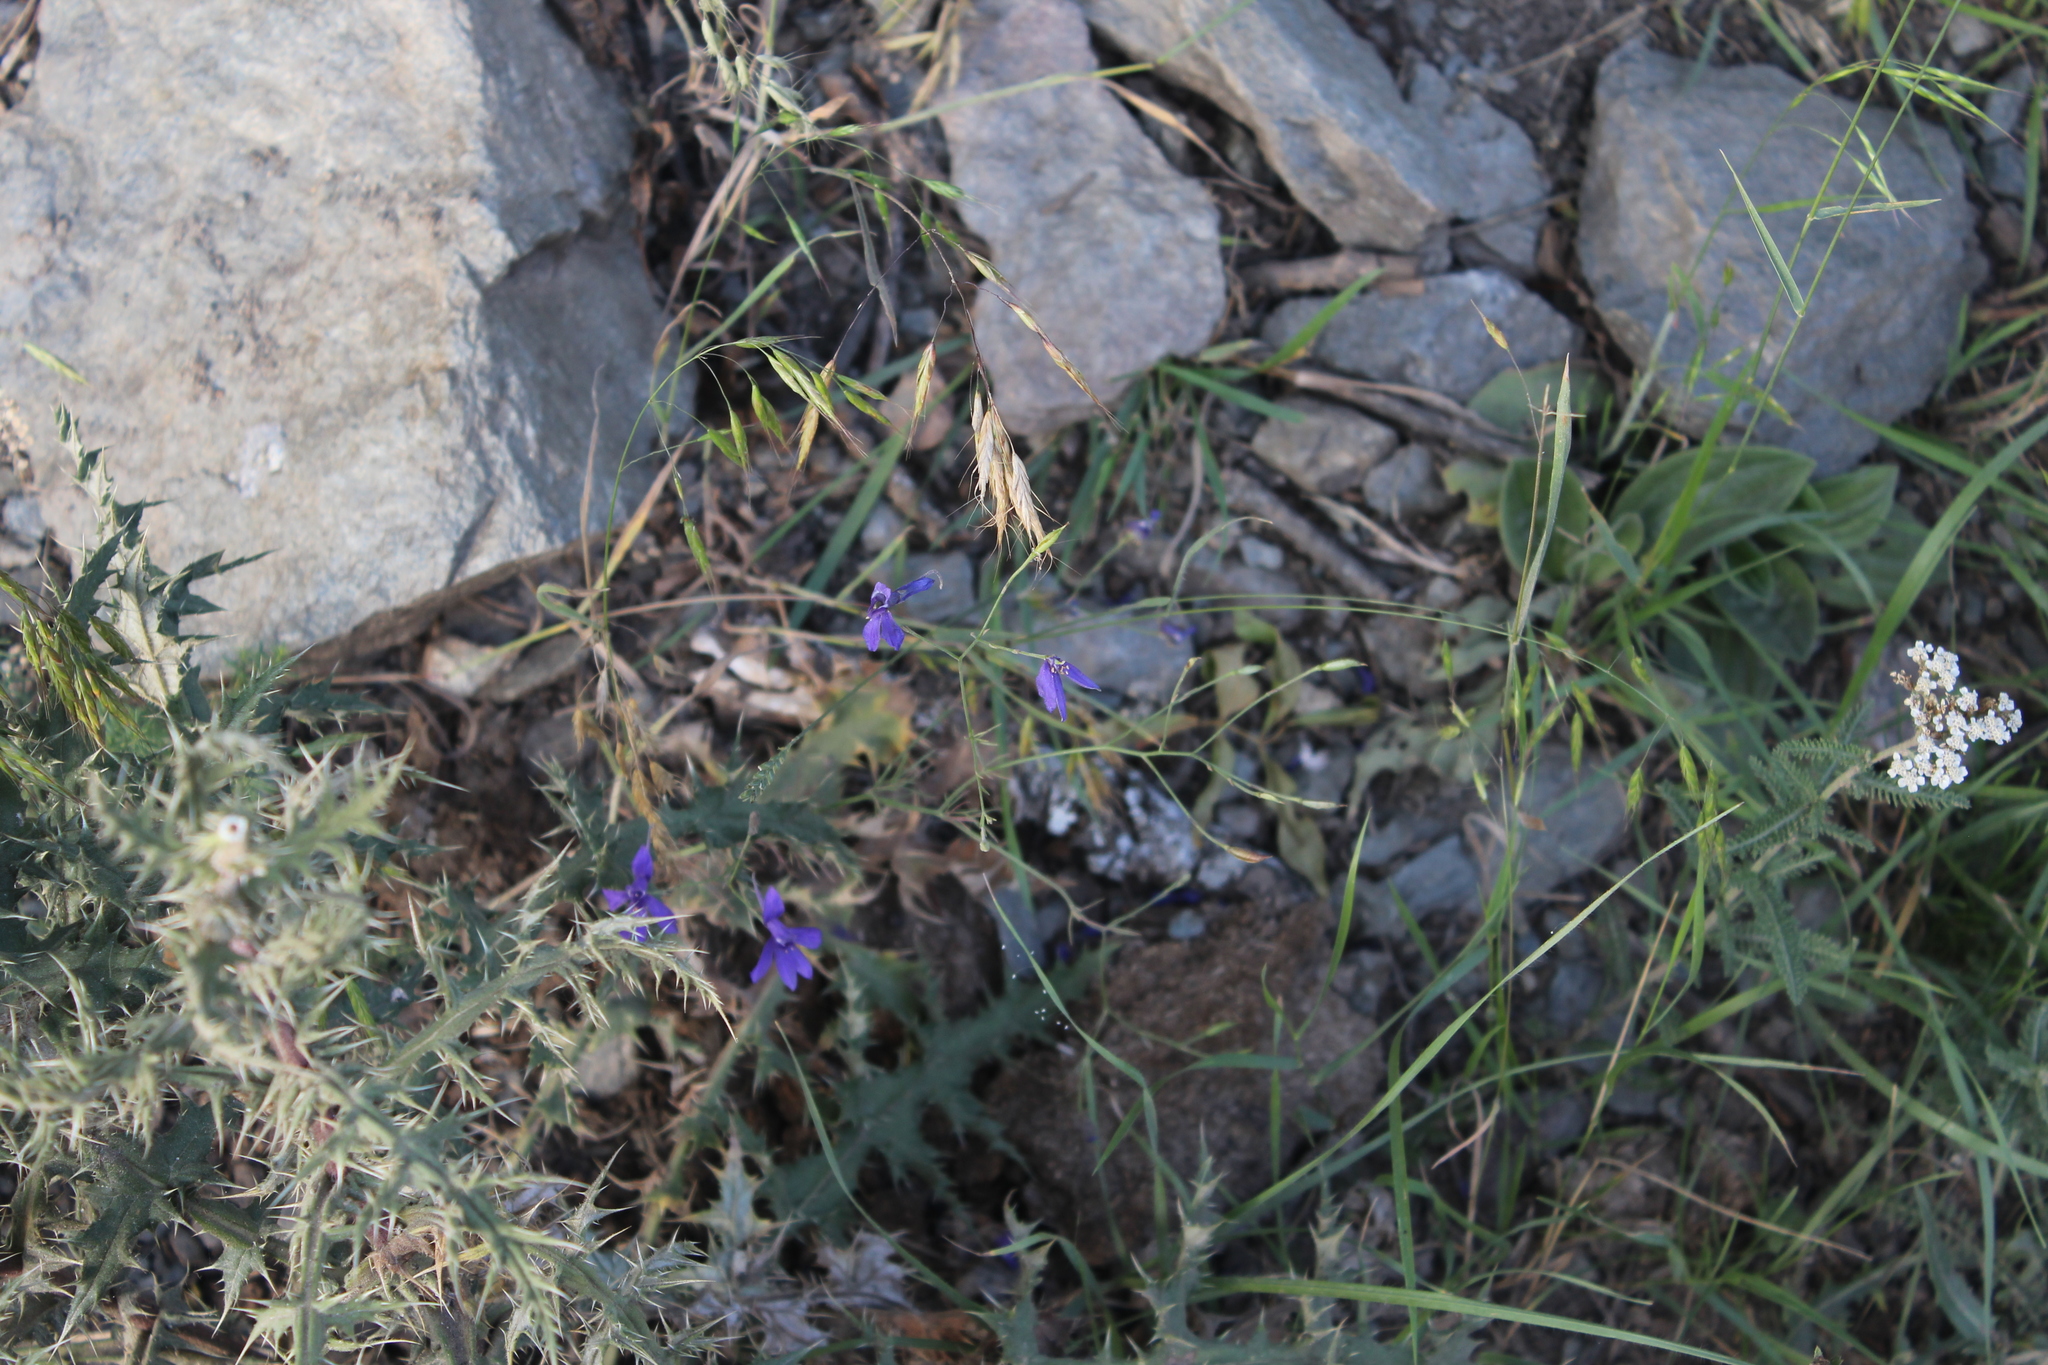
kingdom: Plantae
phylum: Tracheophyta
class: Magnoliopsida
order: Ranunculales
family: Ranunculaceae
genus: Delphinium
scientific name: Delphinium consolida
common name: Branching larkspur
